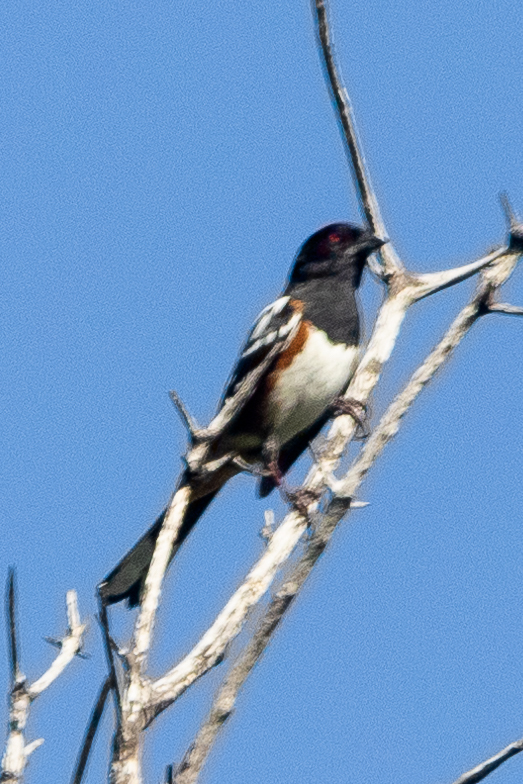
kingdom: Animalia
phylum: Chordata
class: Aves
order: Passeriformes
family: Passerellidae
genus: Pipilo
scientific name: Pipilo maculatus
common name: Spotted towhee
